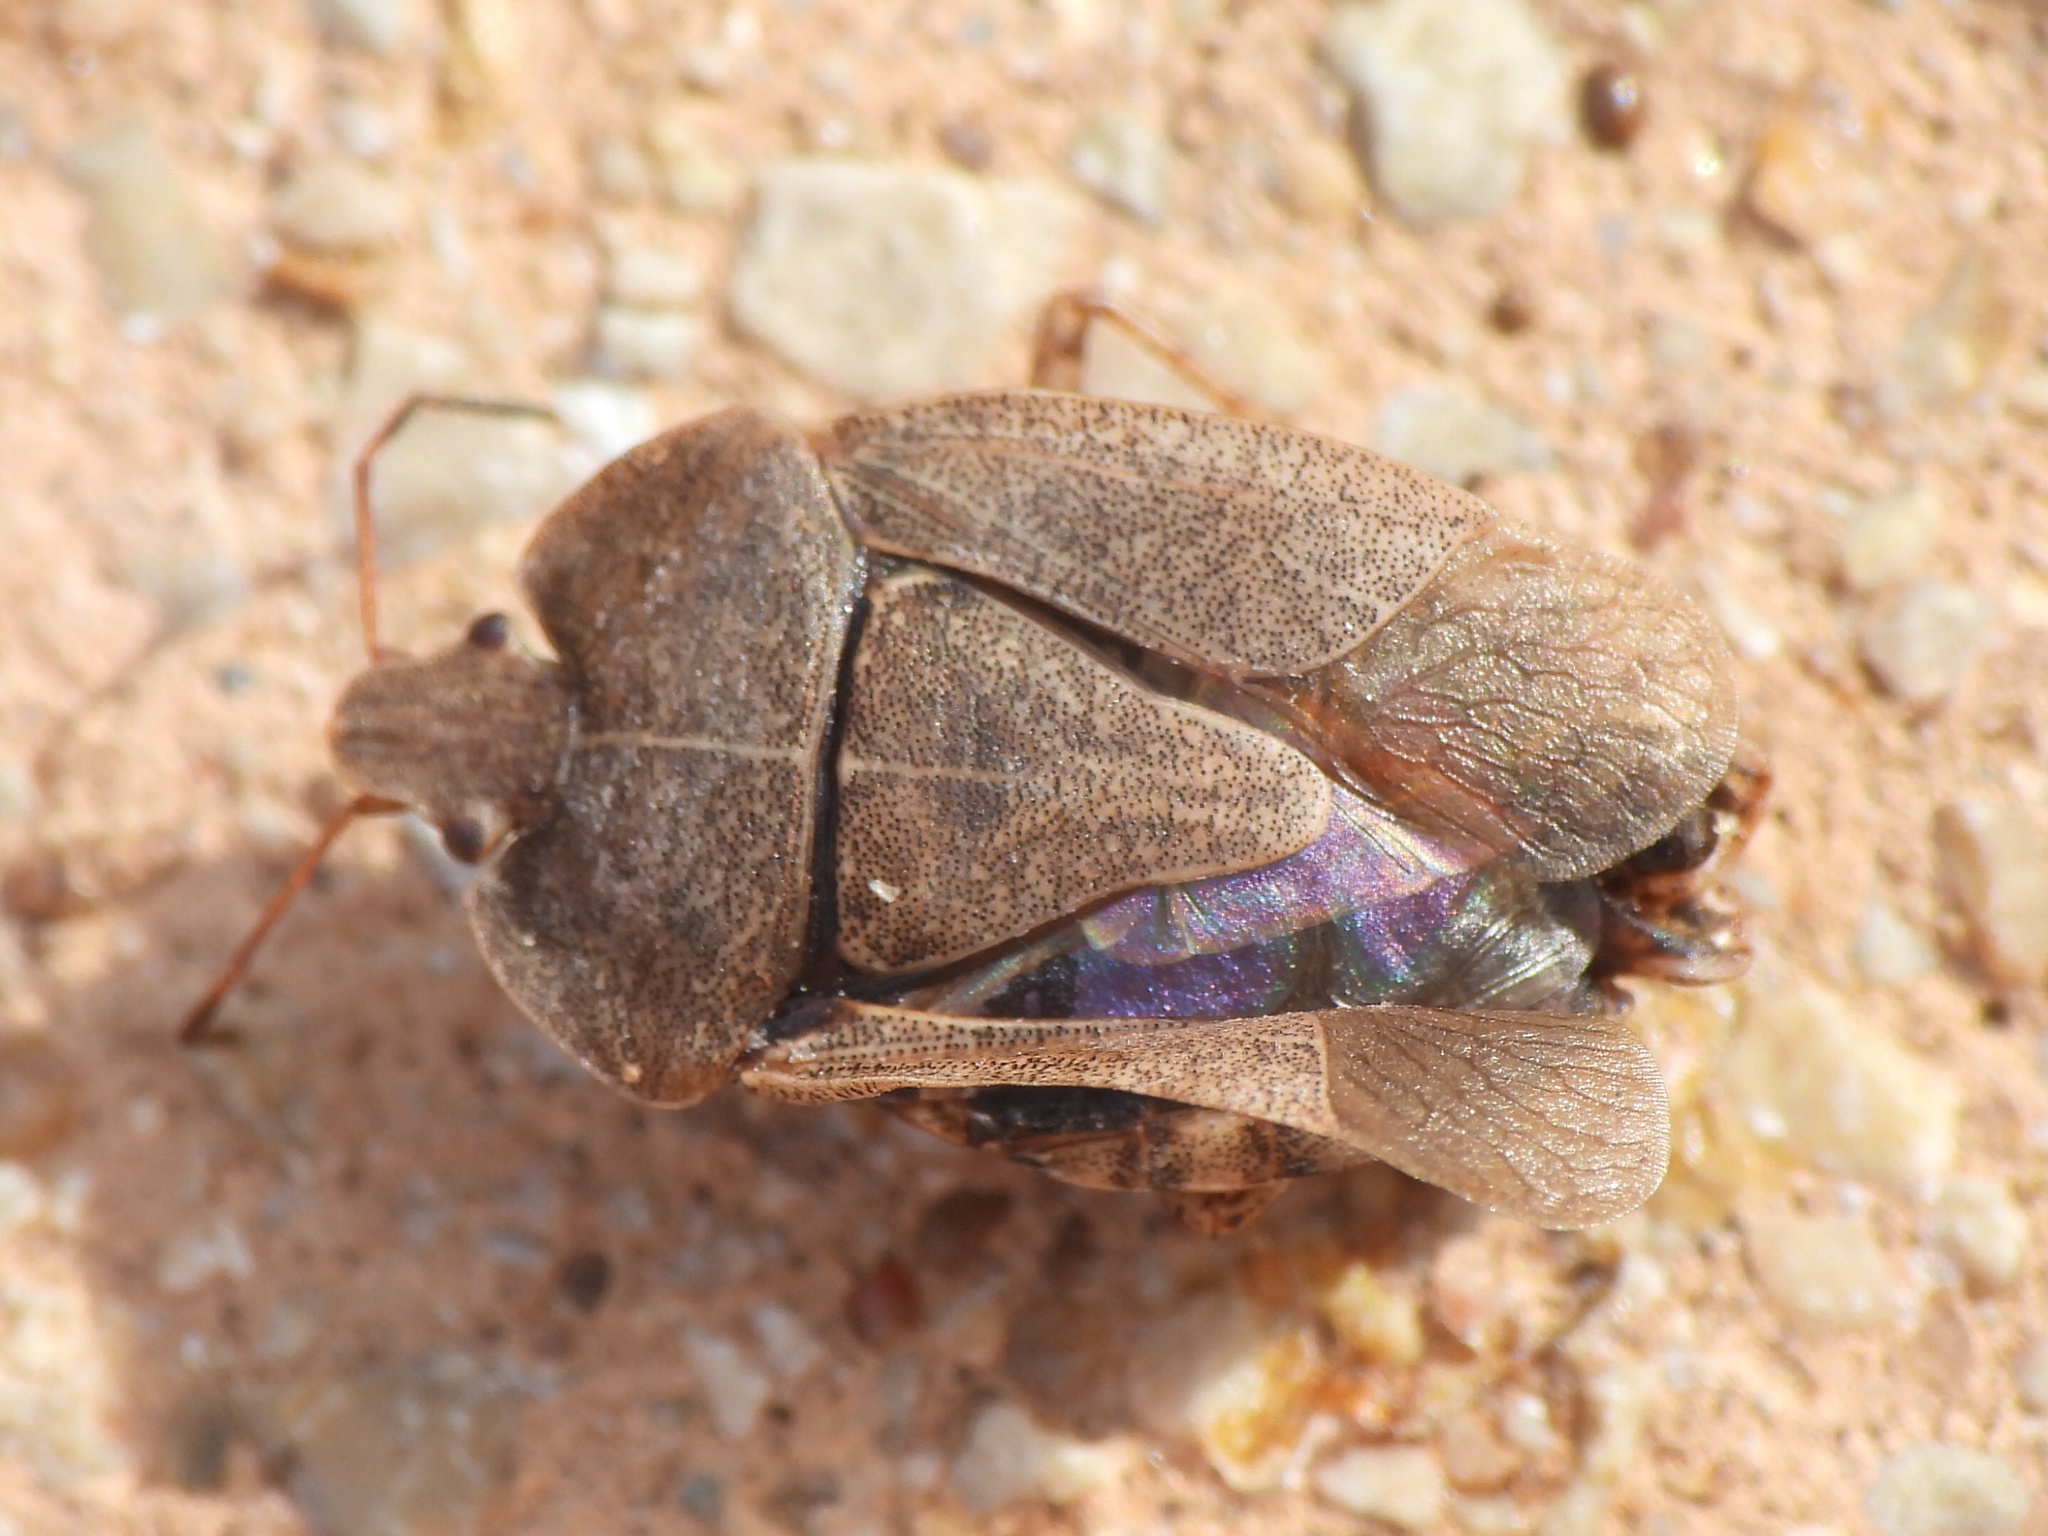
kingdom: Animalia
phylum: Arthropoda
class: Insecta
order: Hemiptera
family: Pentatomidae
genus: Menecles
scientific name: Menecles insertus
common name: Elf shoe stink bug
